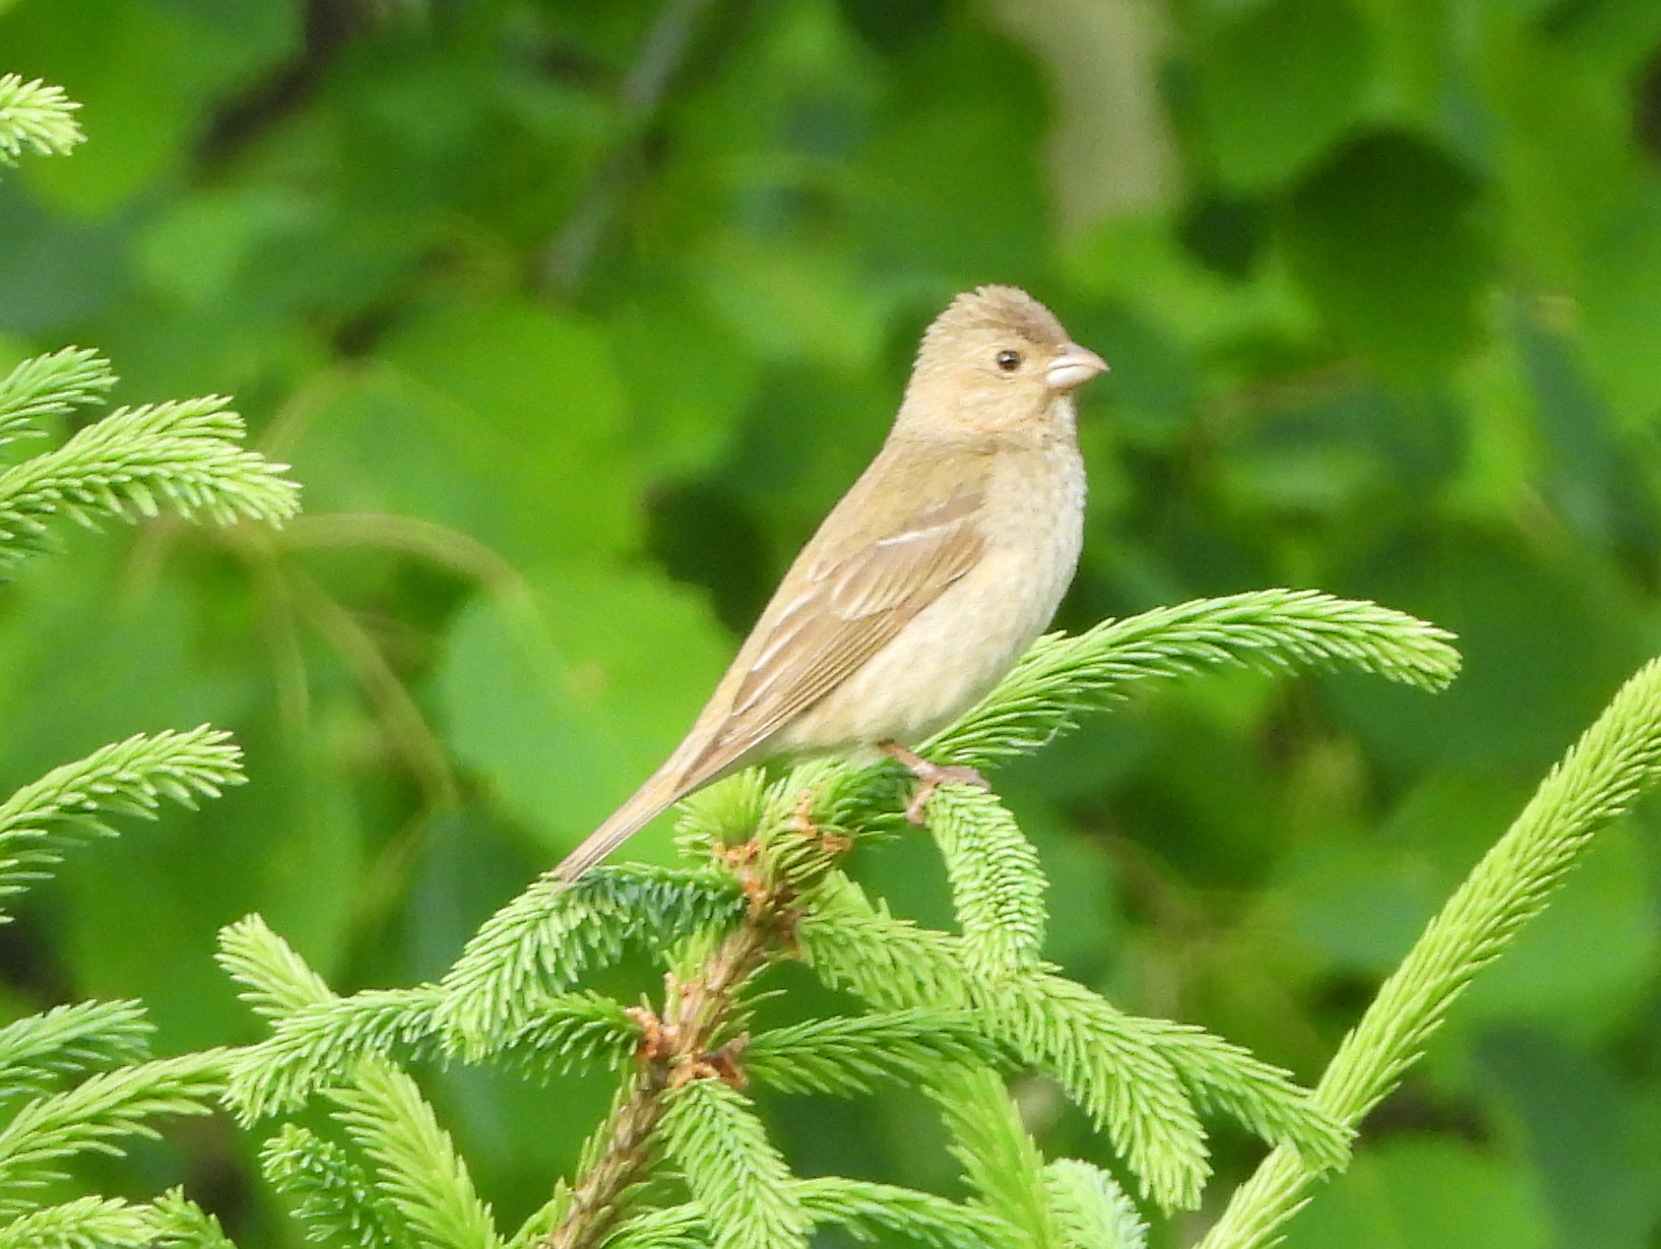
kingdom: Animalia
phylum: Chordata
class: Aves
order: Passeriformes
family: Fringillidae
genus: Carpodacus
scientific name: Carpodacus erythrinus
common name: Common rosefinch
